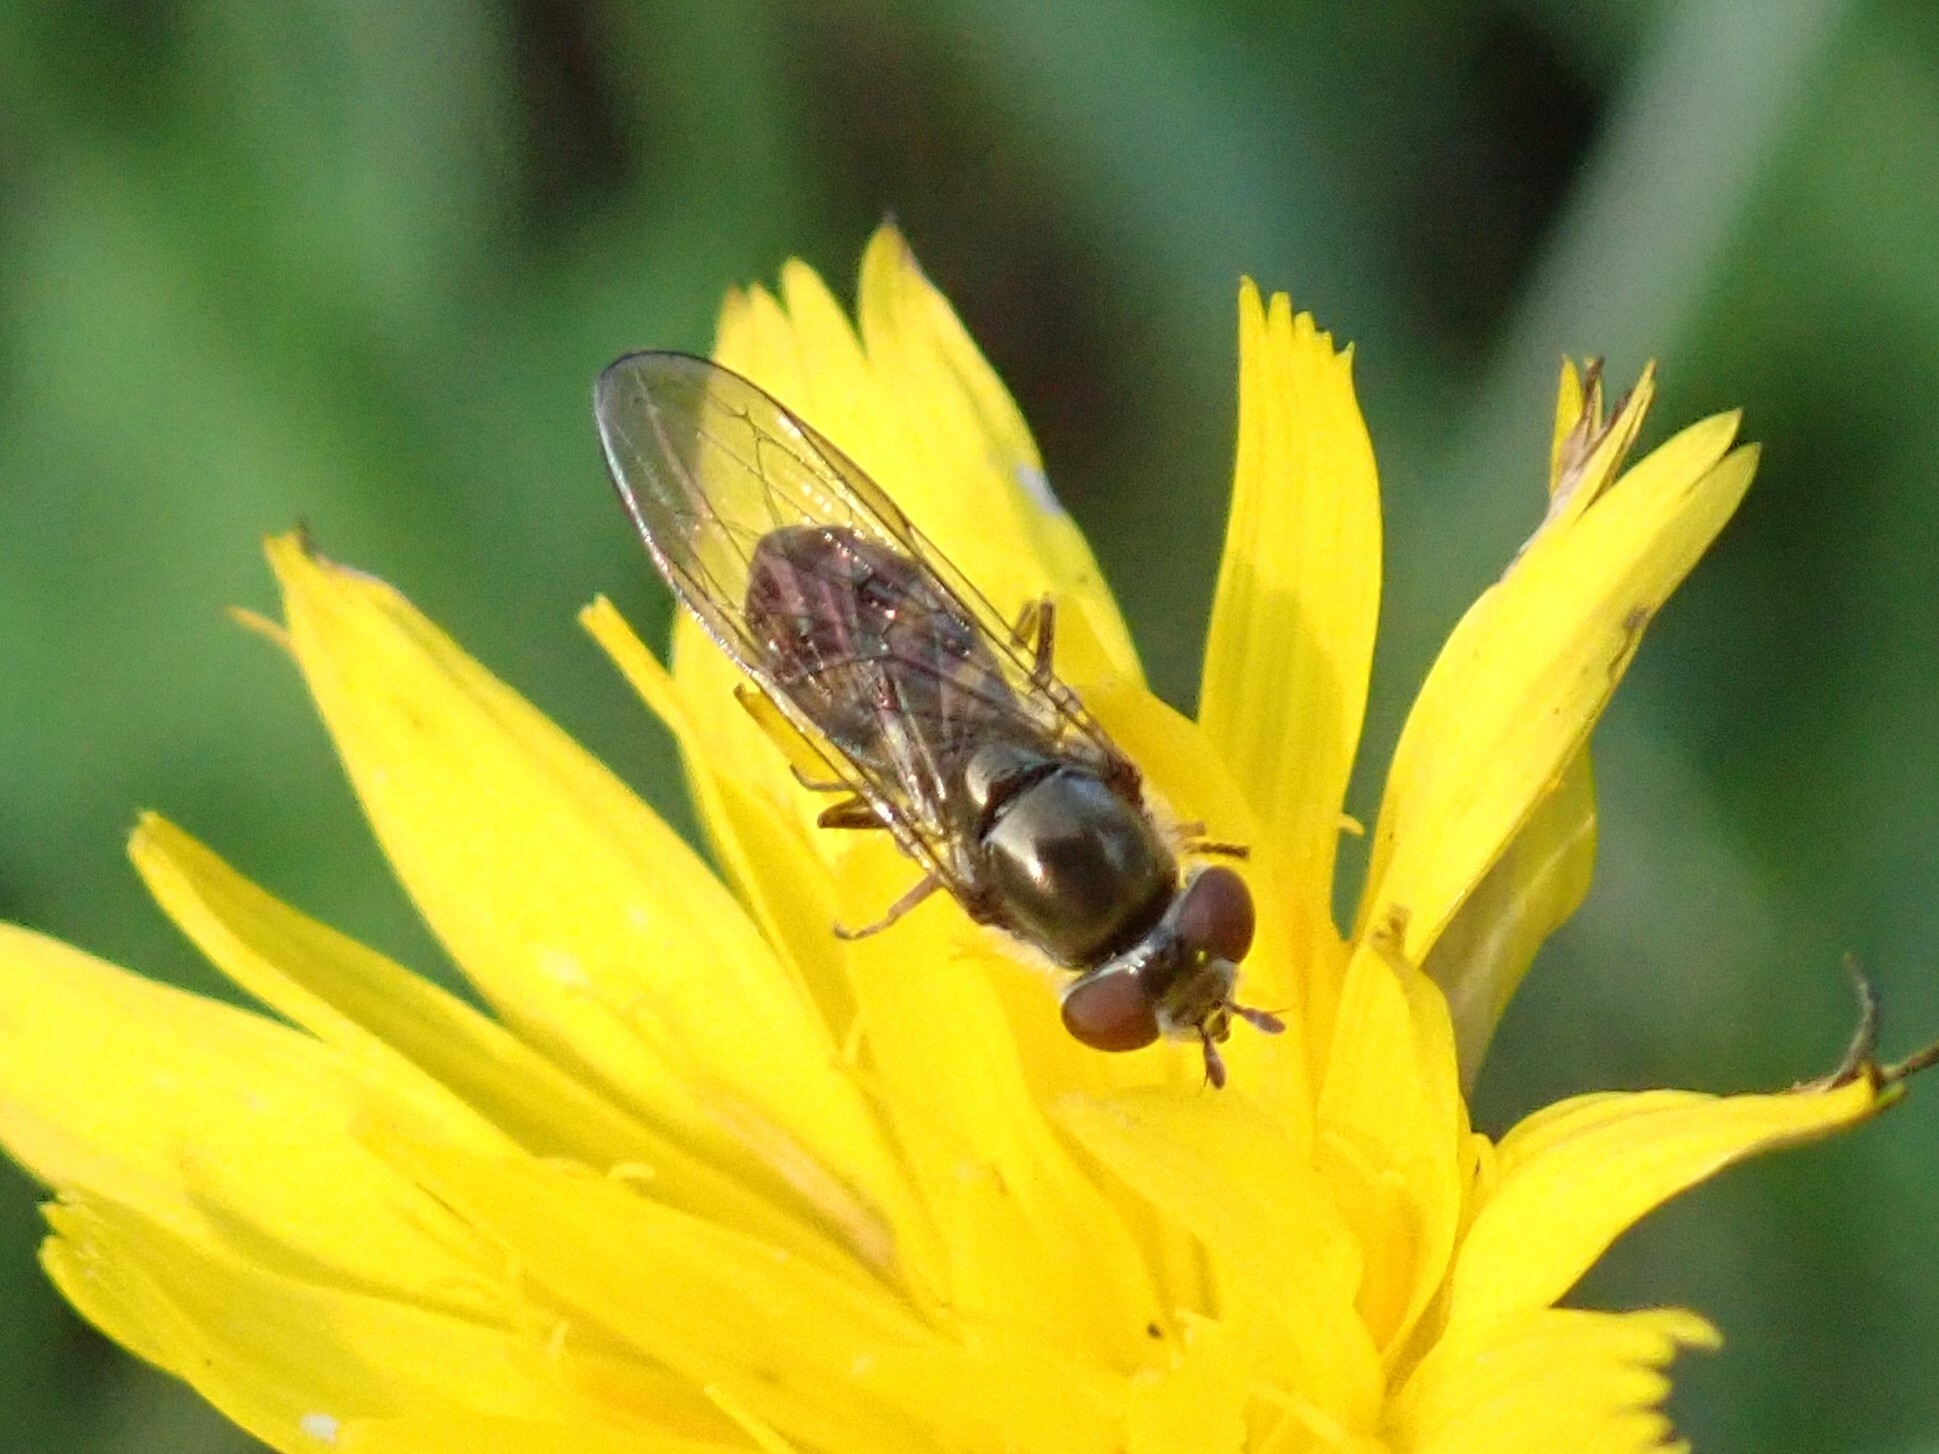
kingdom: Animalia
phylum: Arthropoda
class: Insecta
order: Diptera
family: Syrphidae
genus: Platycheirus
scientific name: Platycheirus trichopus
